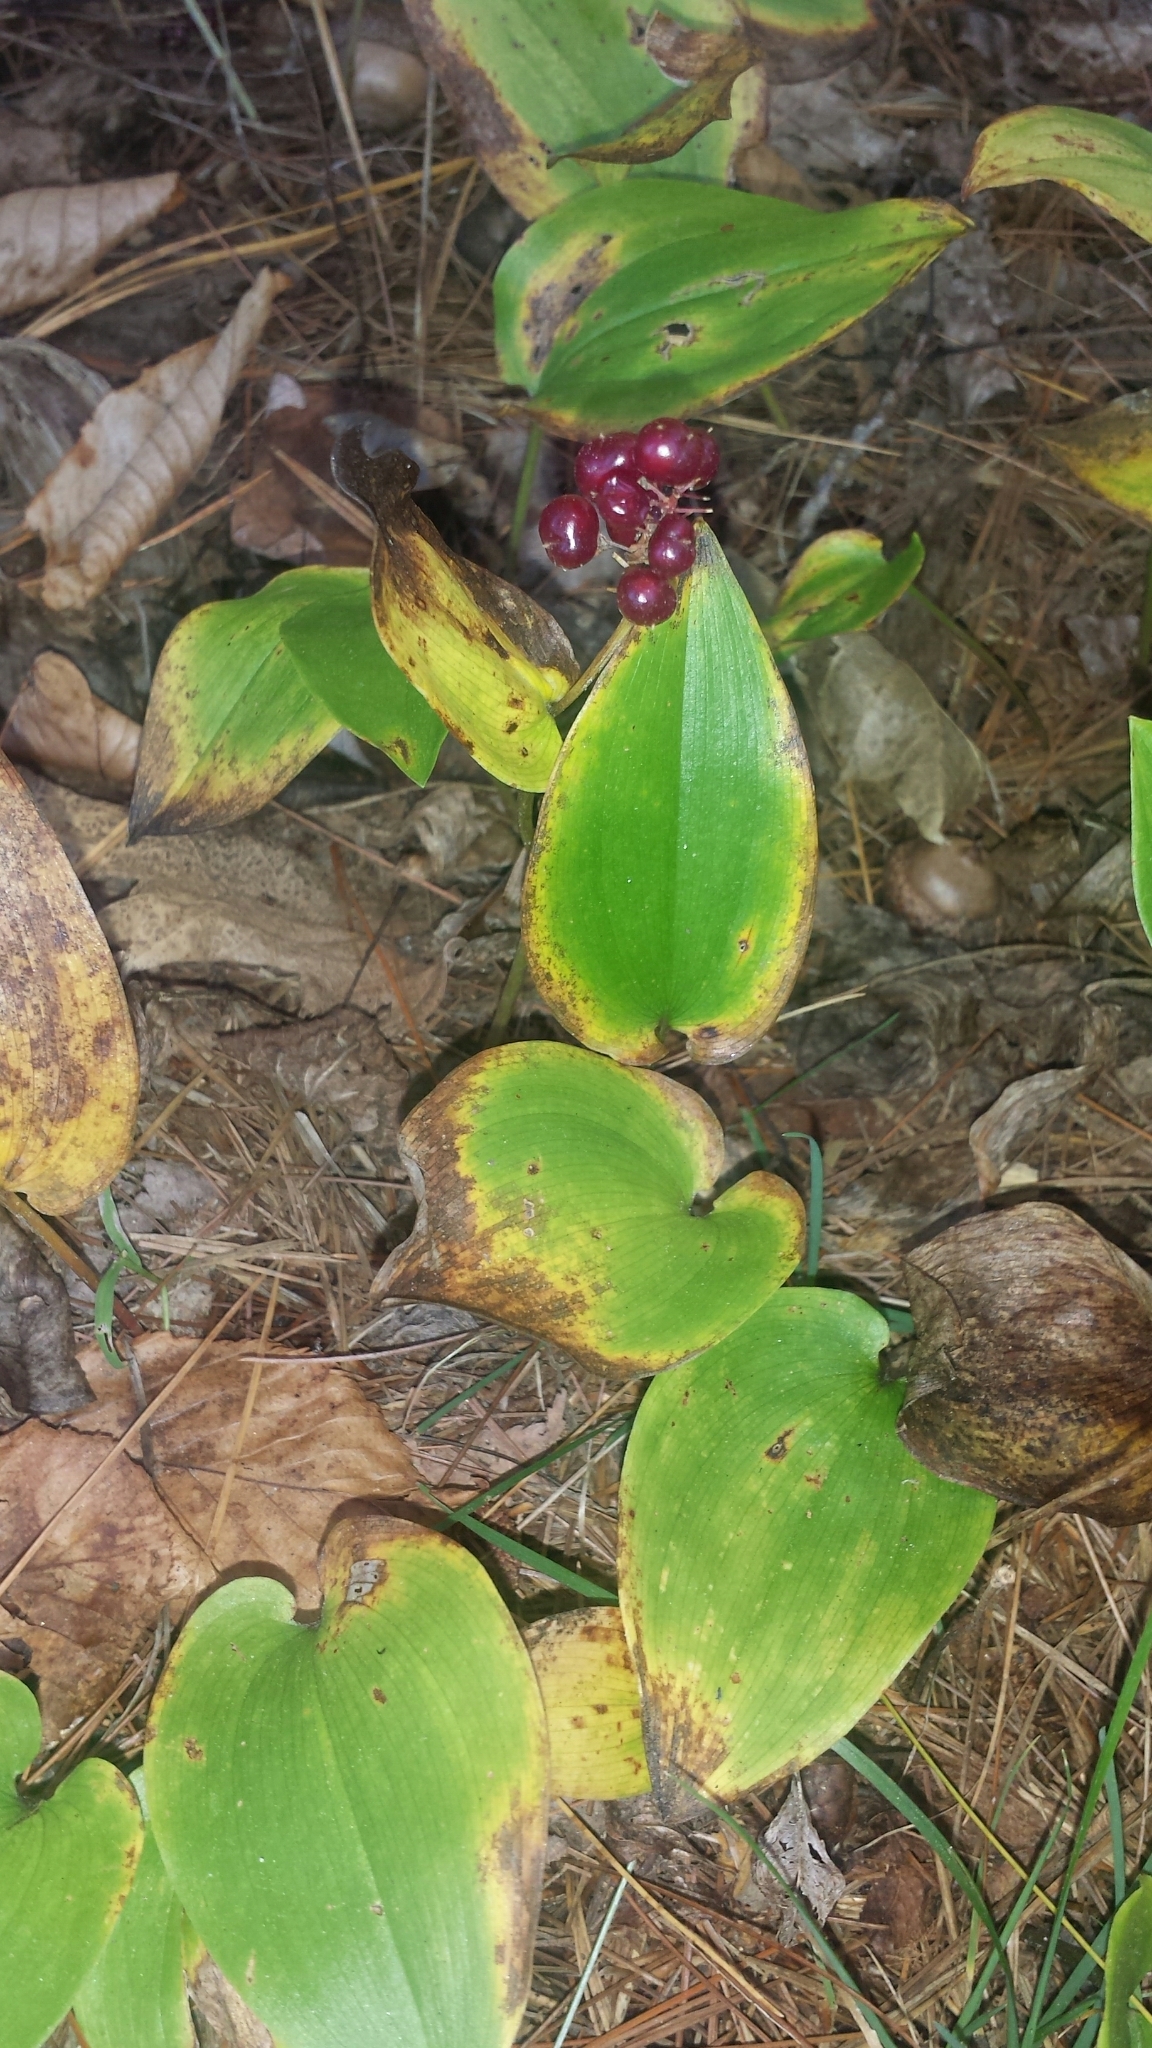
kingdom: Plantae
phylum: Tracheophyta
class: Liliopsida
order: Asparagales
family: Asparagaceae
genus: Maianthemum
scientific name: Maianthemum canadense
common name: False lily-of-the-valley
